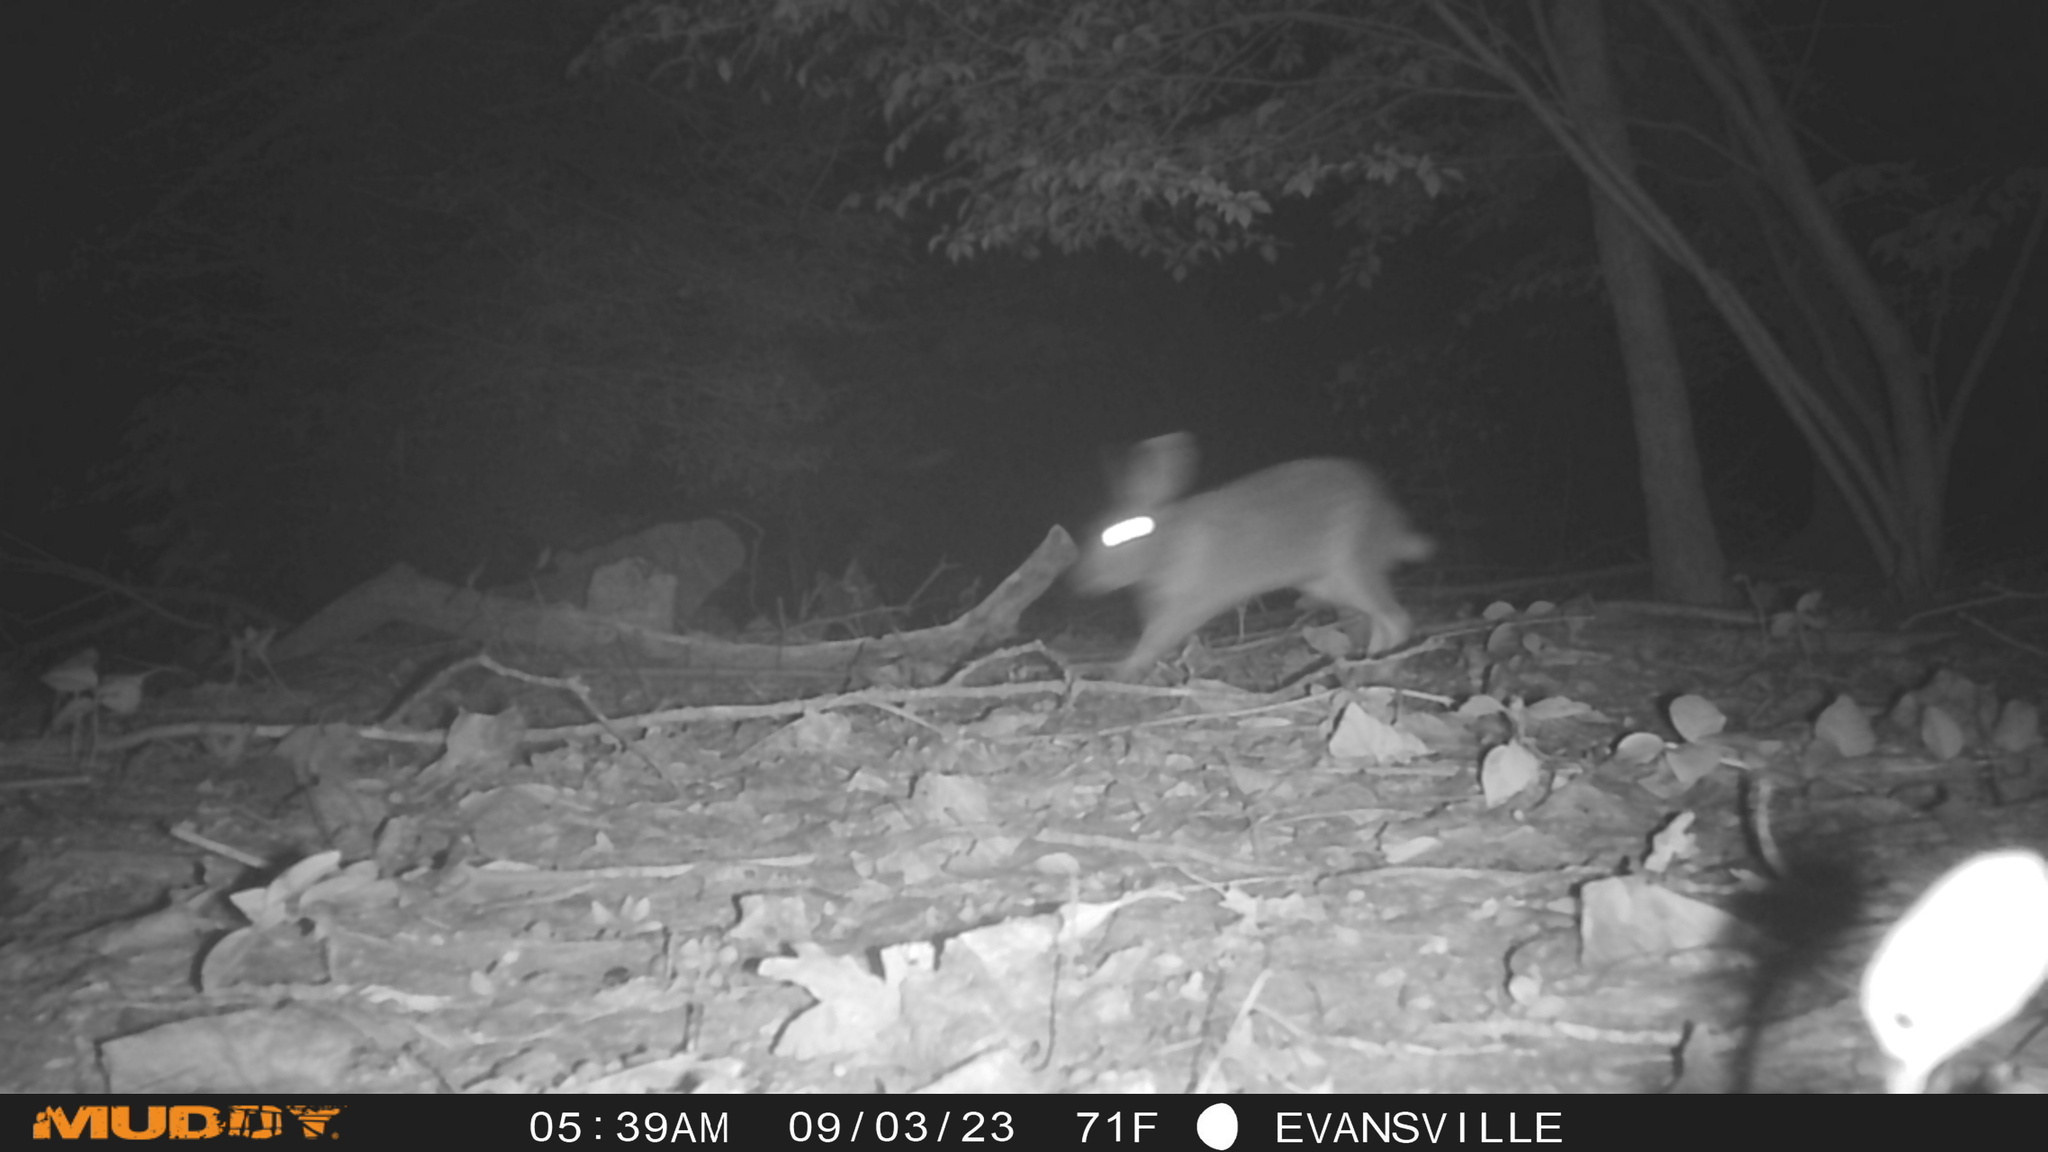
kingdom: Animalia
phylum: Chordata
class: Mammalia
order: Lagomorpha
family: Leporidae
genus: Sylvilagus
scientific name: Sylvilagus floridanus
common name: Eastern cottontail
